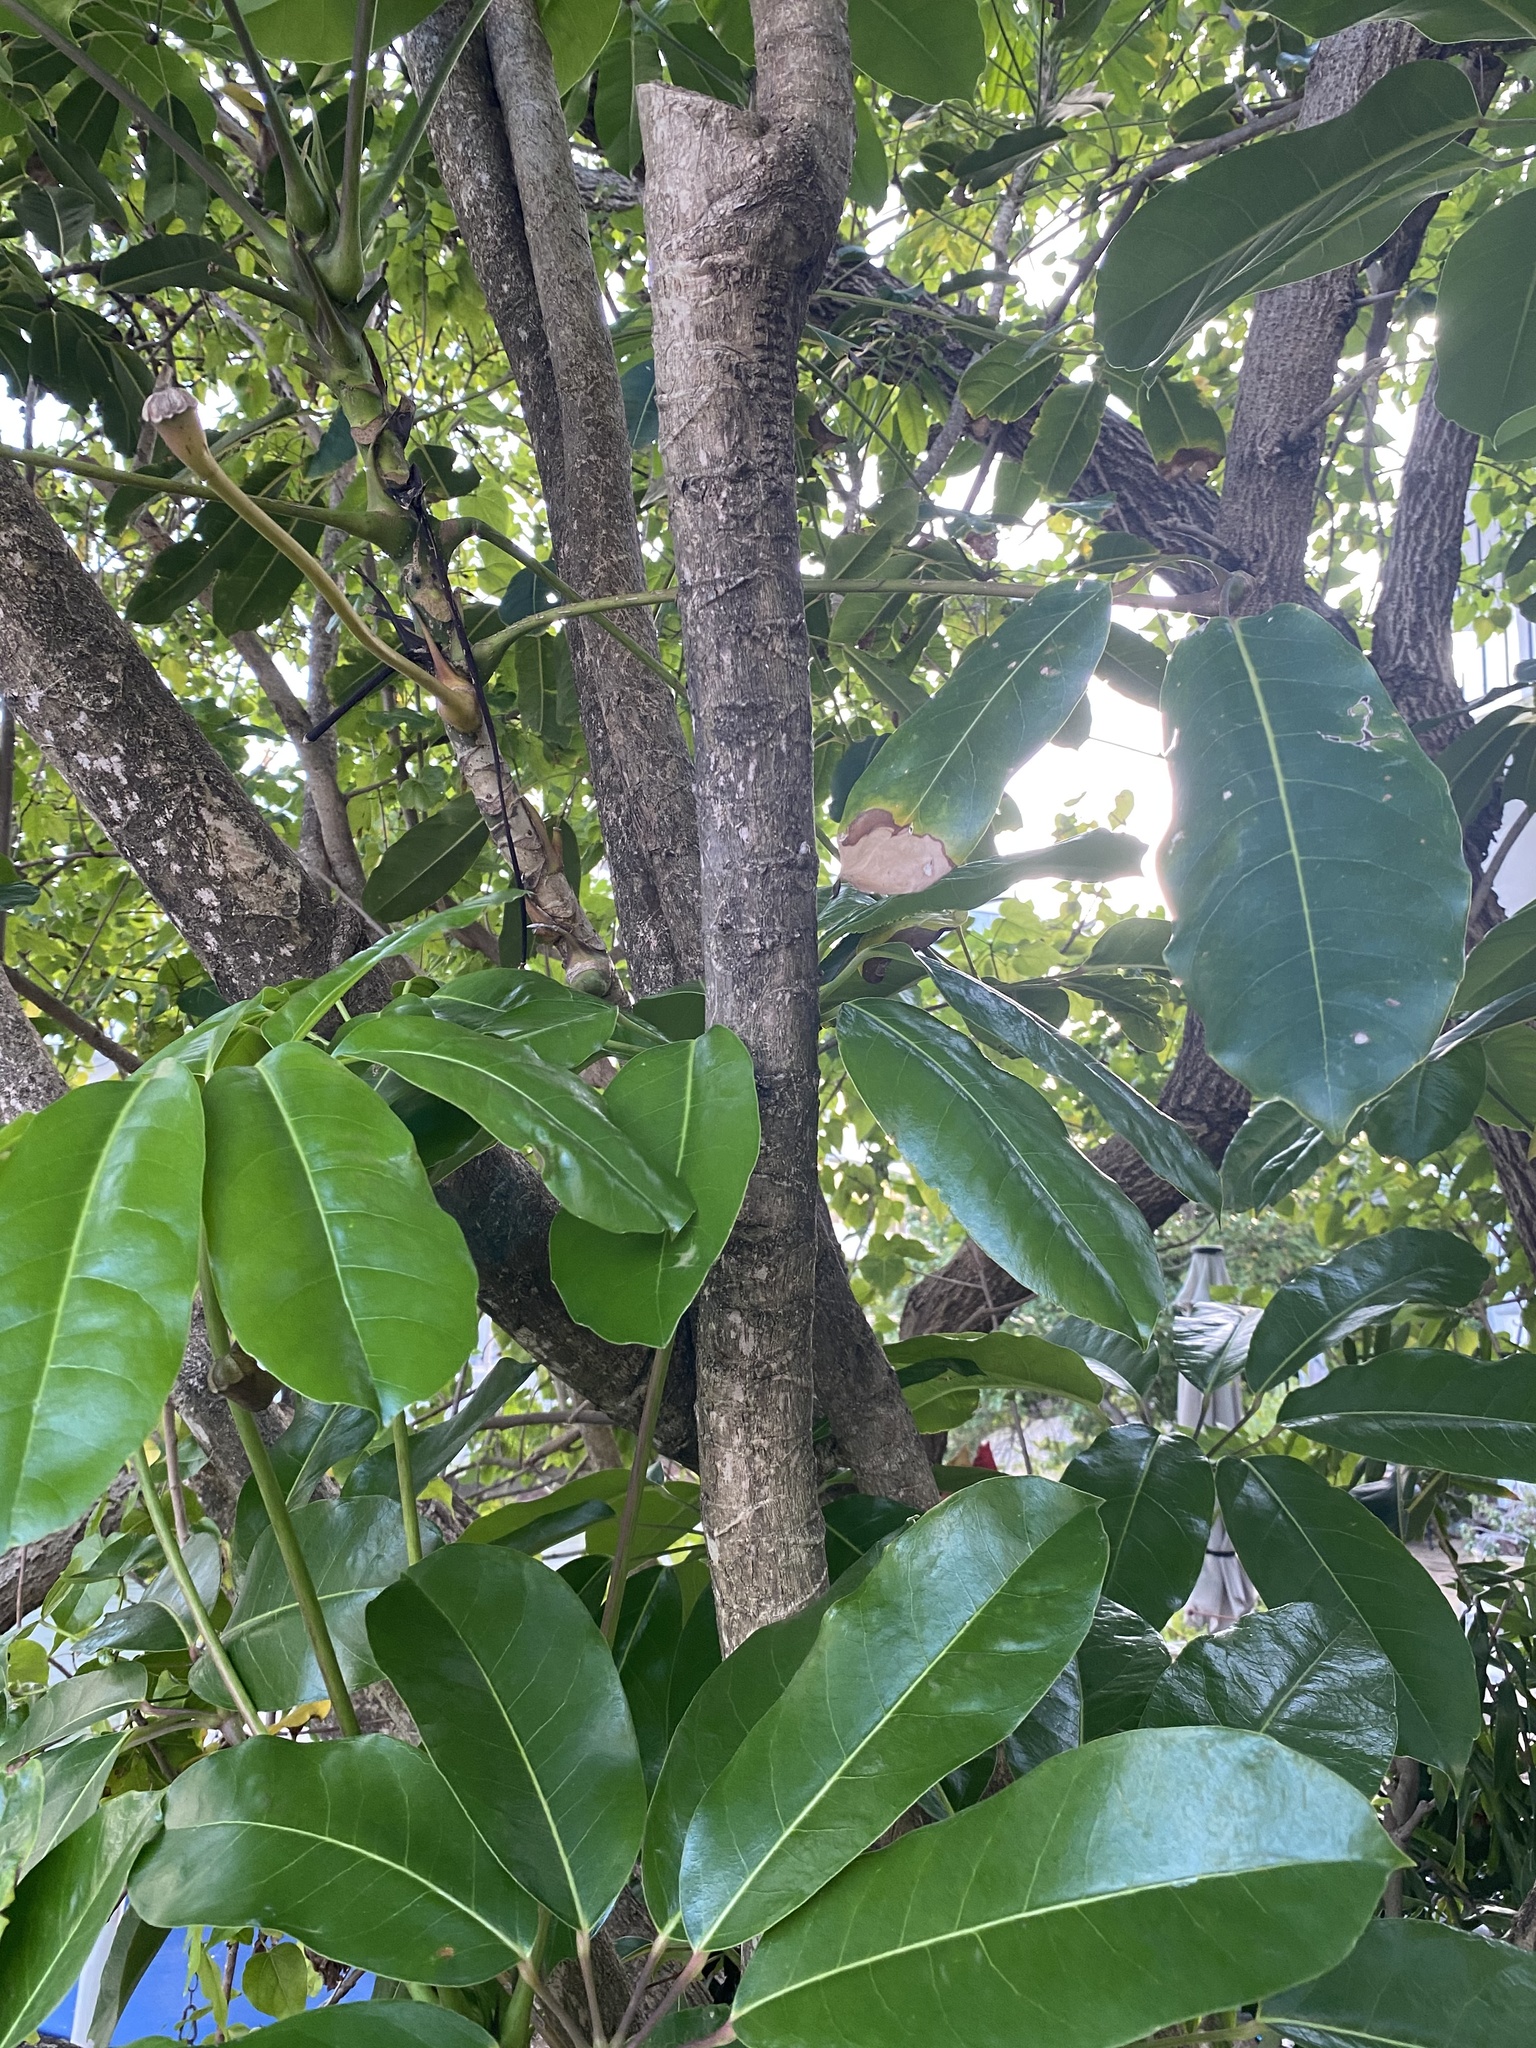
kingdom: Plantae
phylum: Tracheophyta
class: Magnoliopsida
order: Apiales
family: Araliaceae
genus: Heptapleurum
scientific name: Heptapleurum actinophyllum
